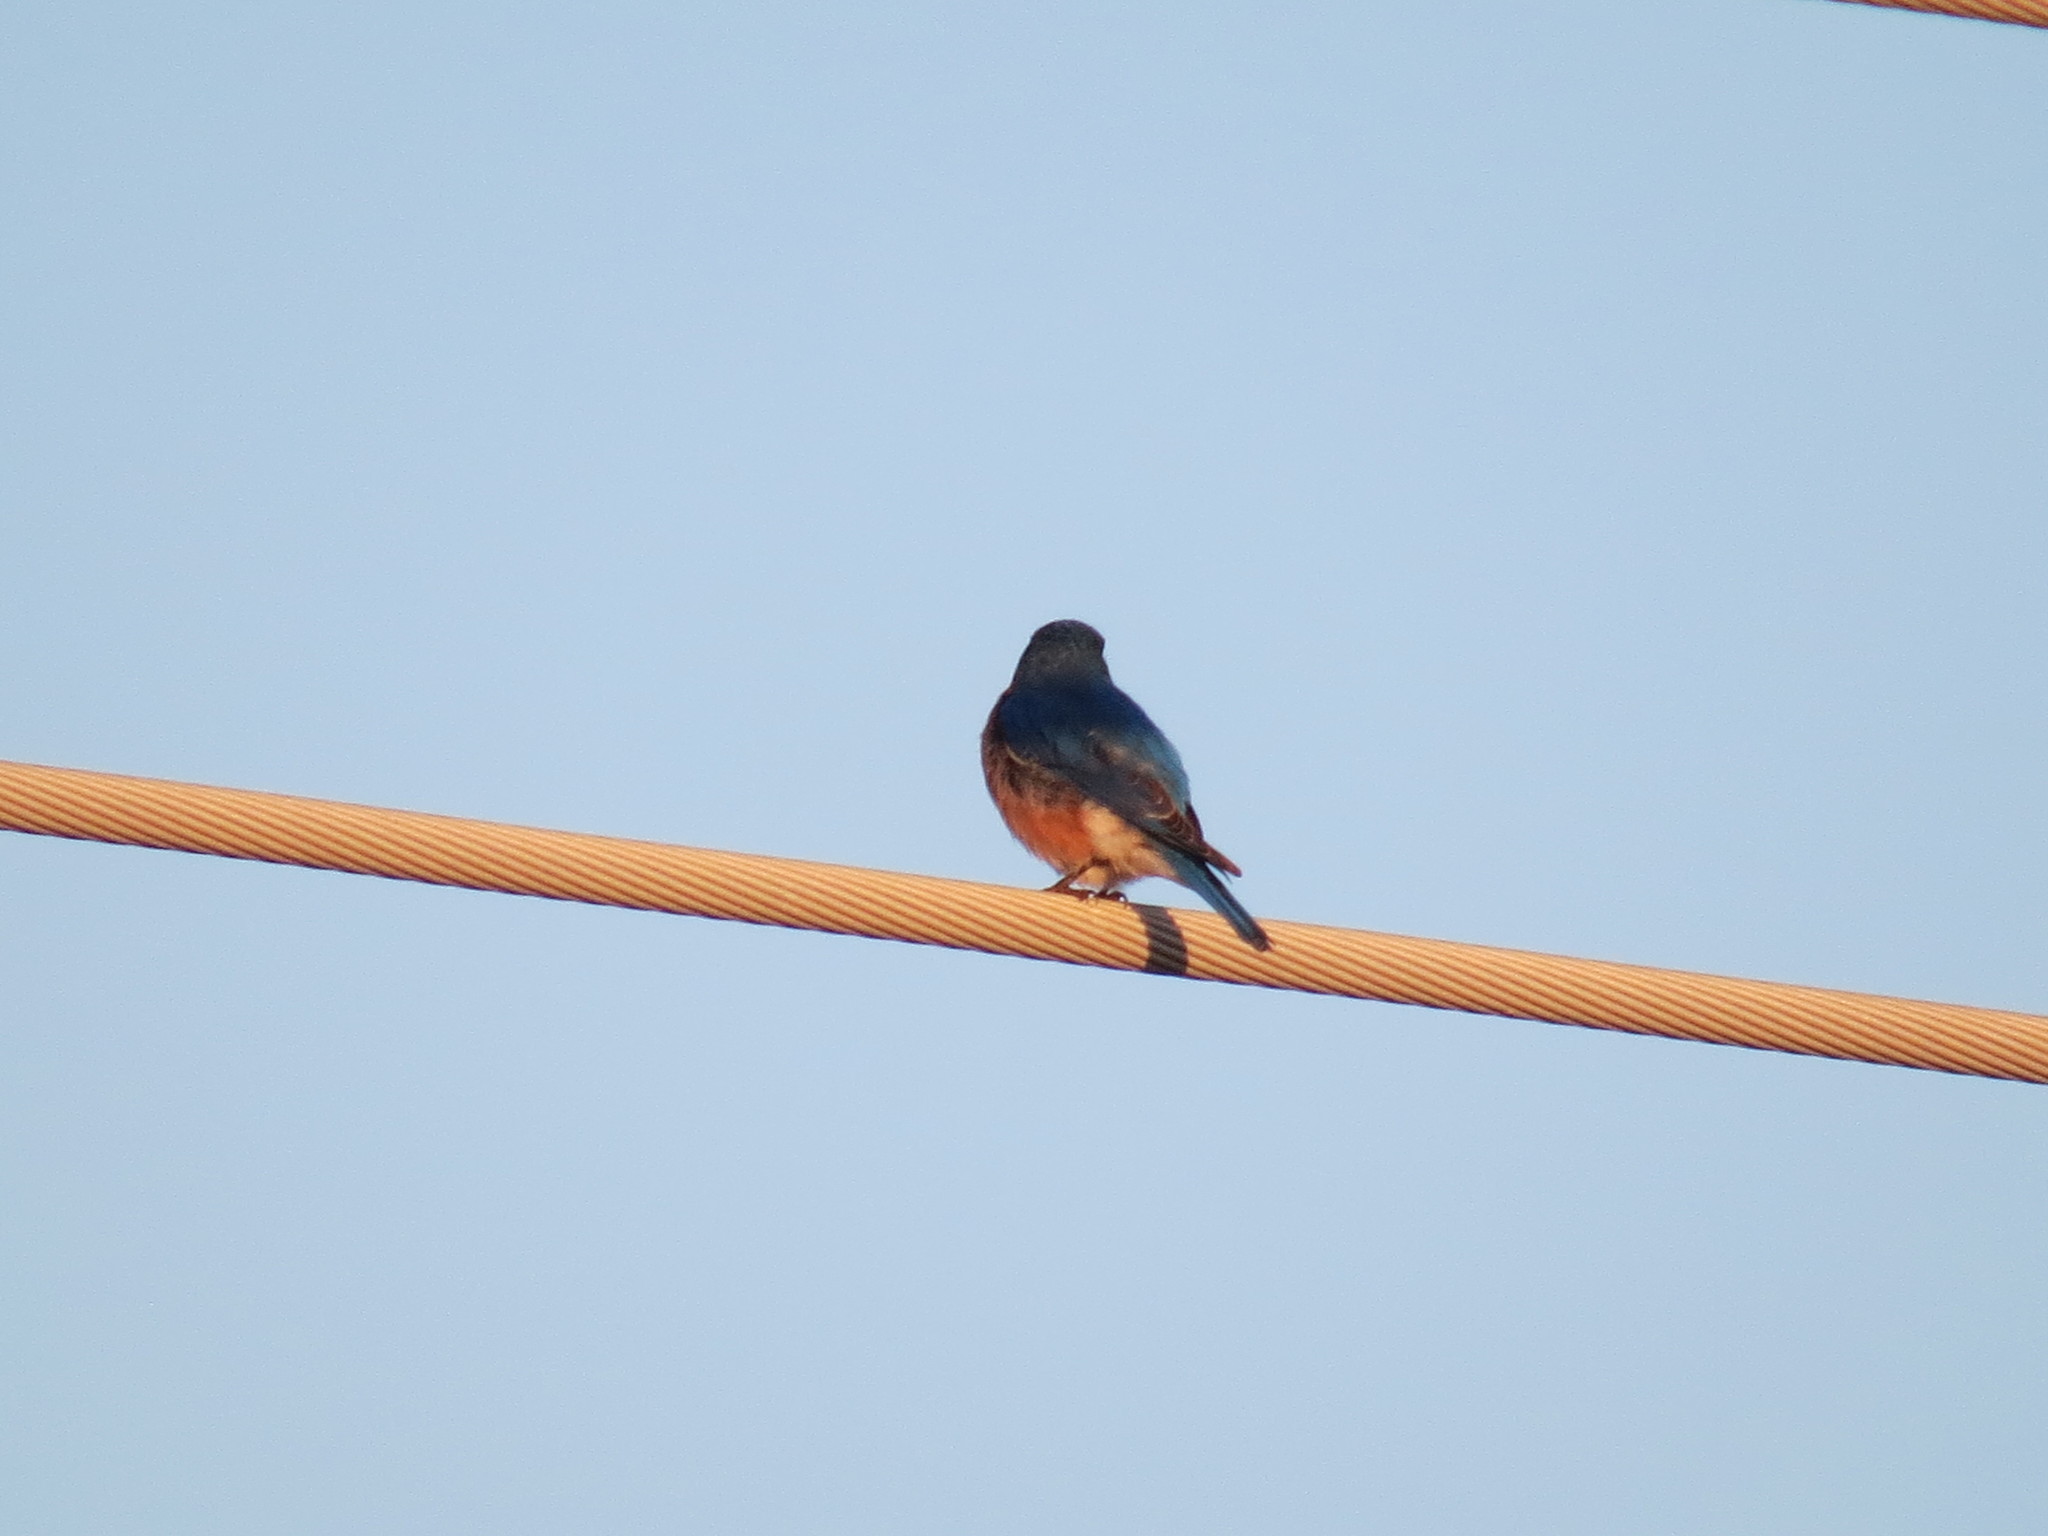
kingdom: Animalia
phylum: Chordata
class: Aves
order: Passeriformes
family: Turdidae
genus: Sialia
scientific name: Sialia sialis
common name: Eastern bluebird
